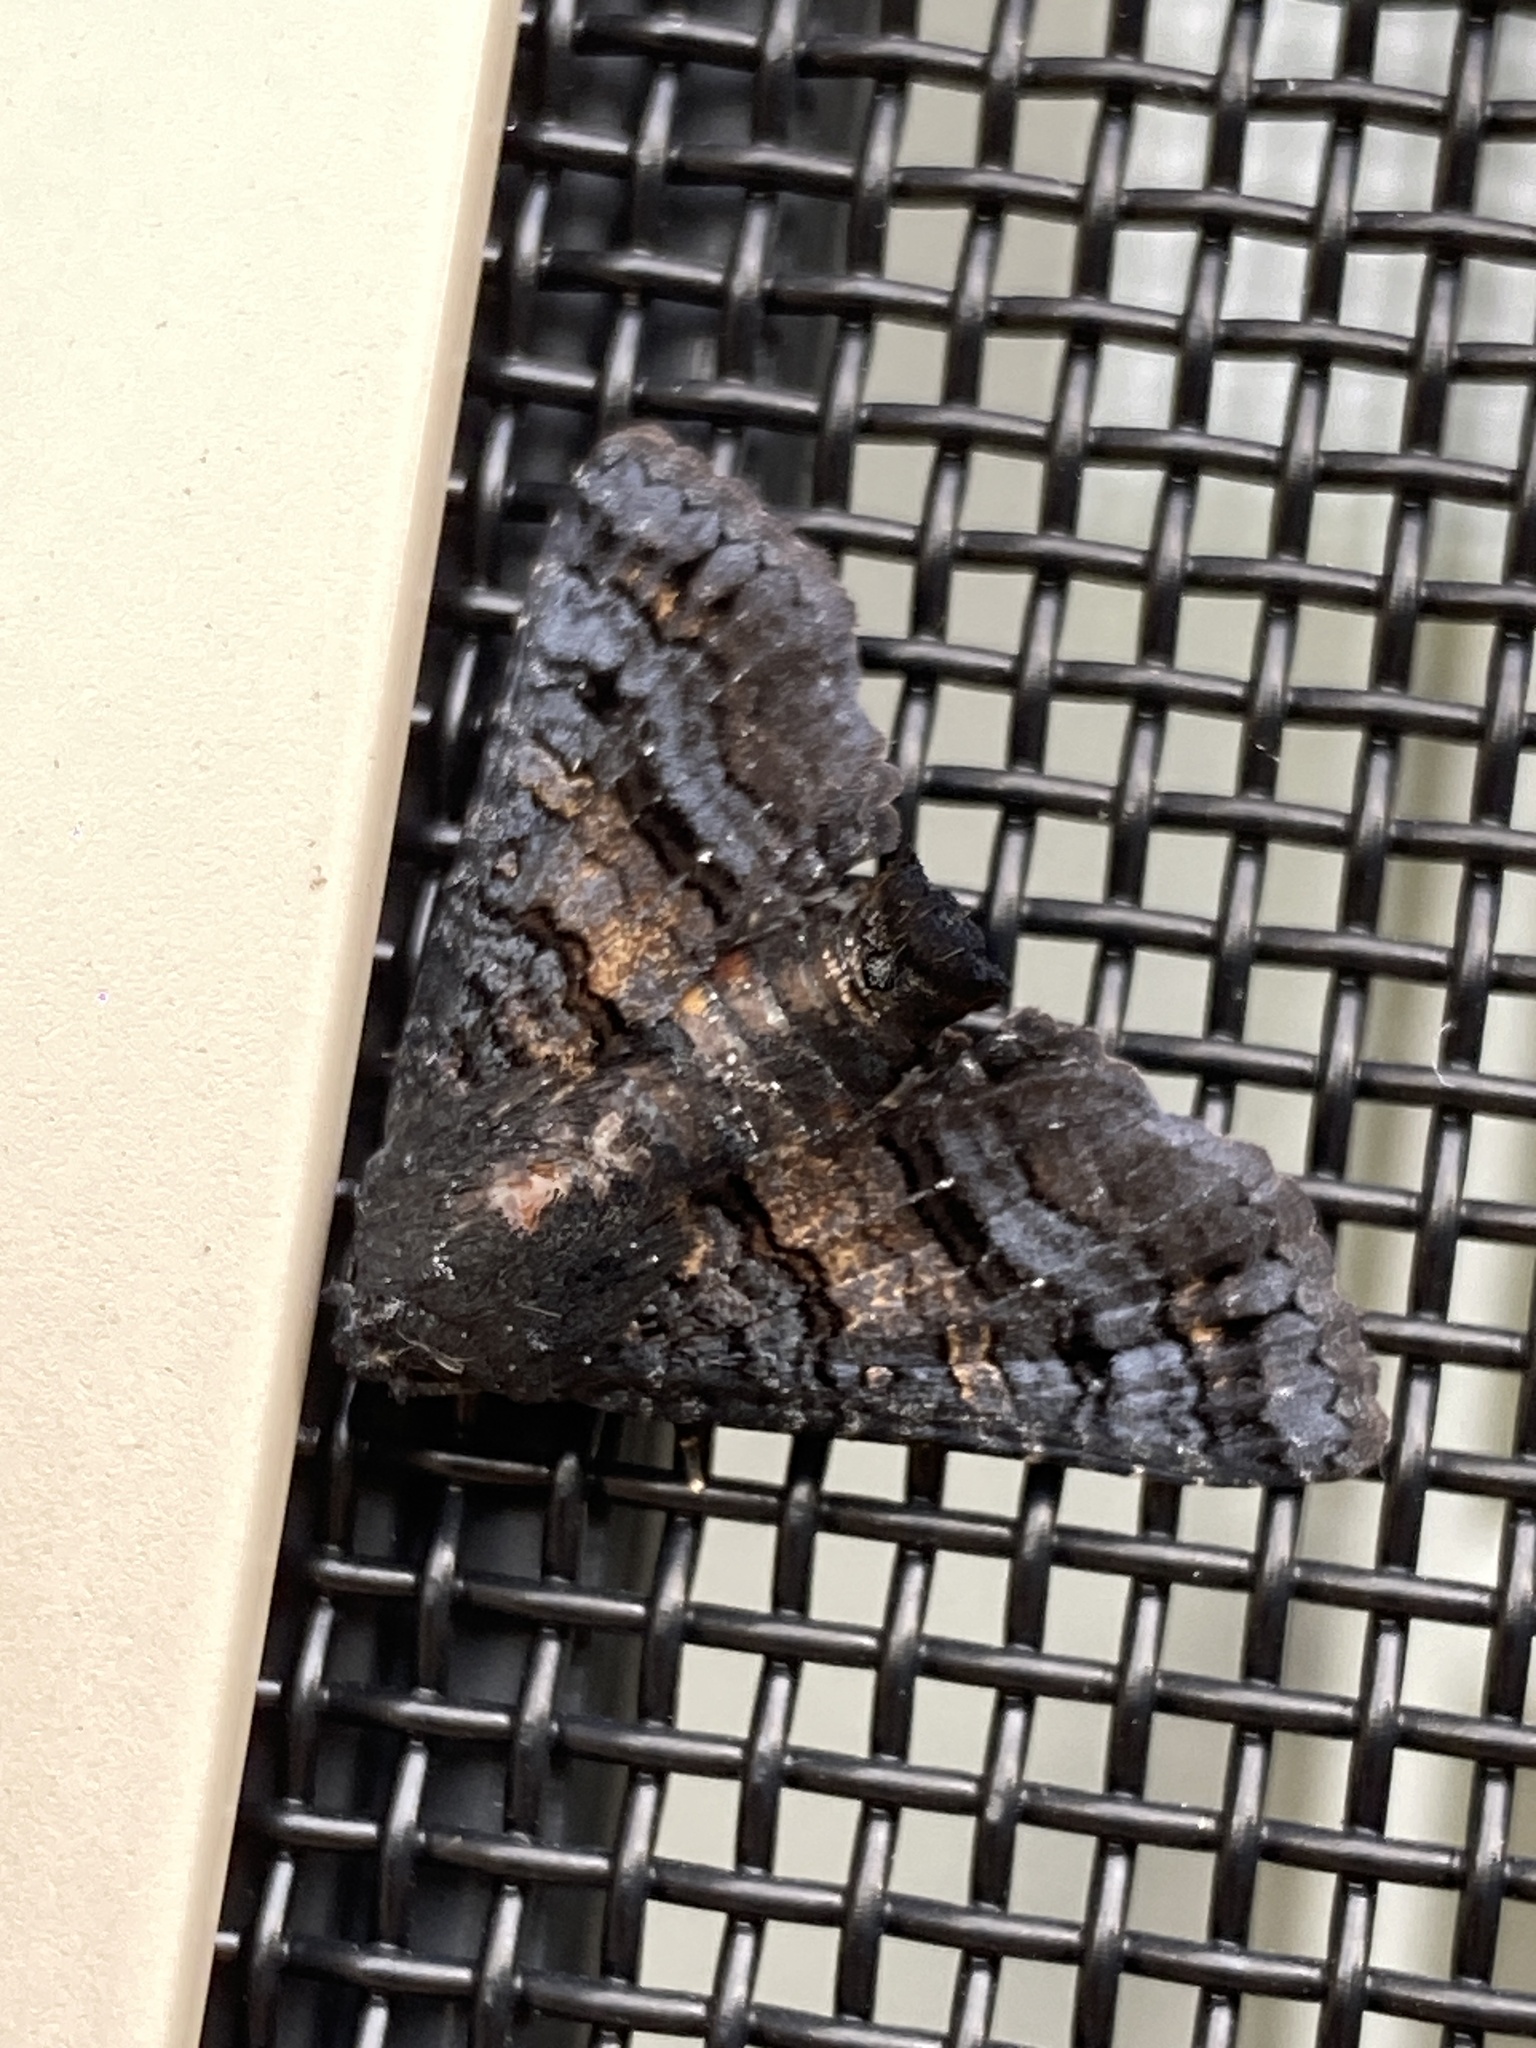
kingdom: Animalia
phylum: Arthropoda
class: Insecta
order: Lepidoptera
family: Euteliidae
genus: Pataeta
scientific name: Pataeta carbo
